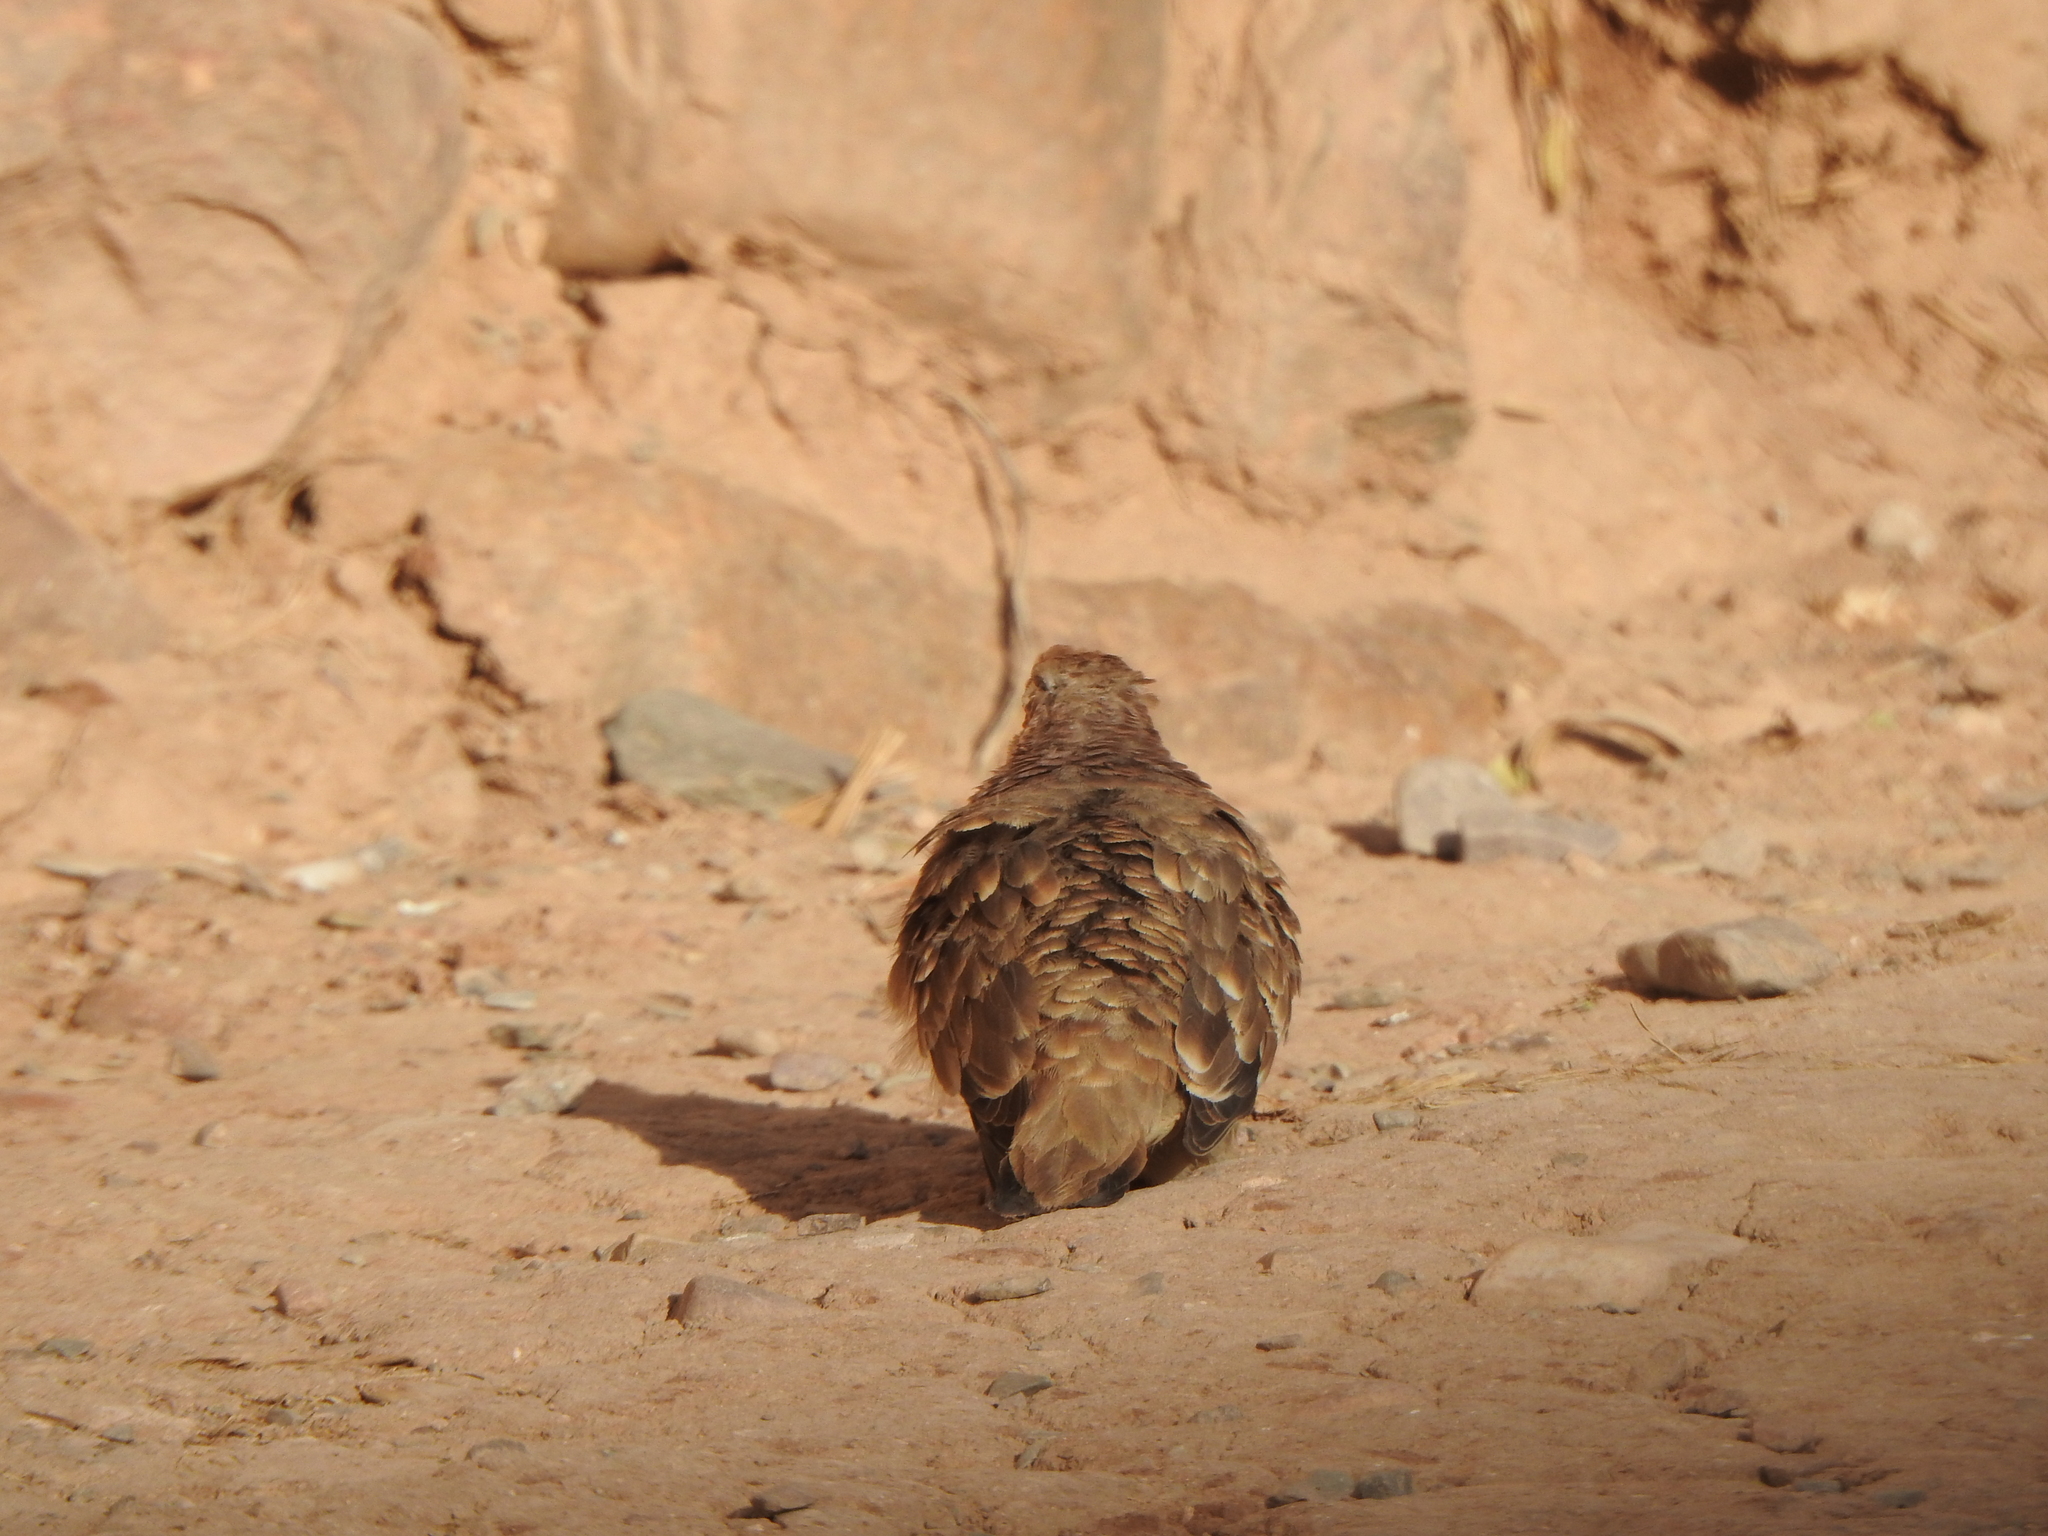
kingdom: Animalia
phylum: Chordata
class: Aves
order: Columbiformes
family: Columbidae
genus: Metriopelia
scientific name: Metriopelia ceciliae
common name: Bare-faced ground dove
